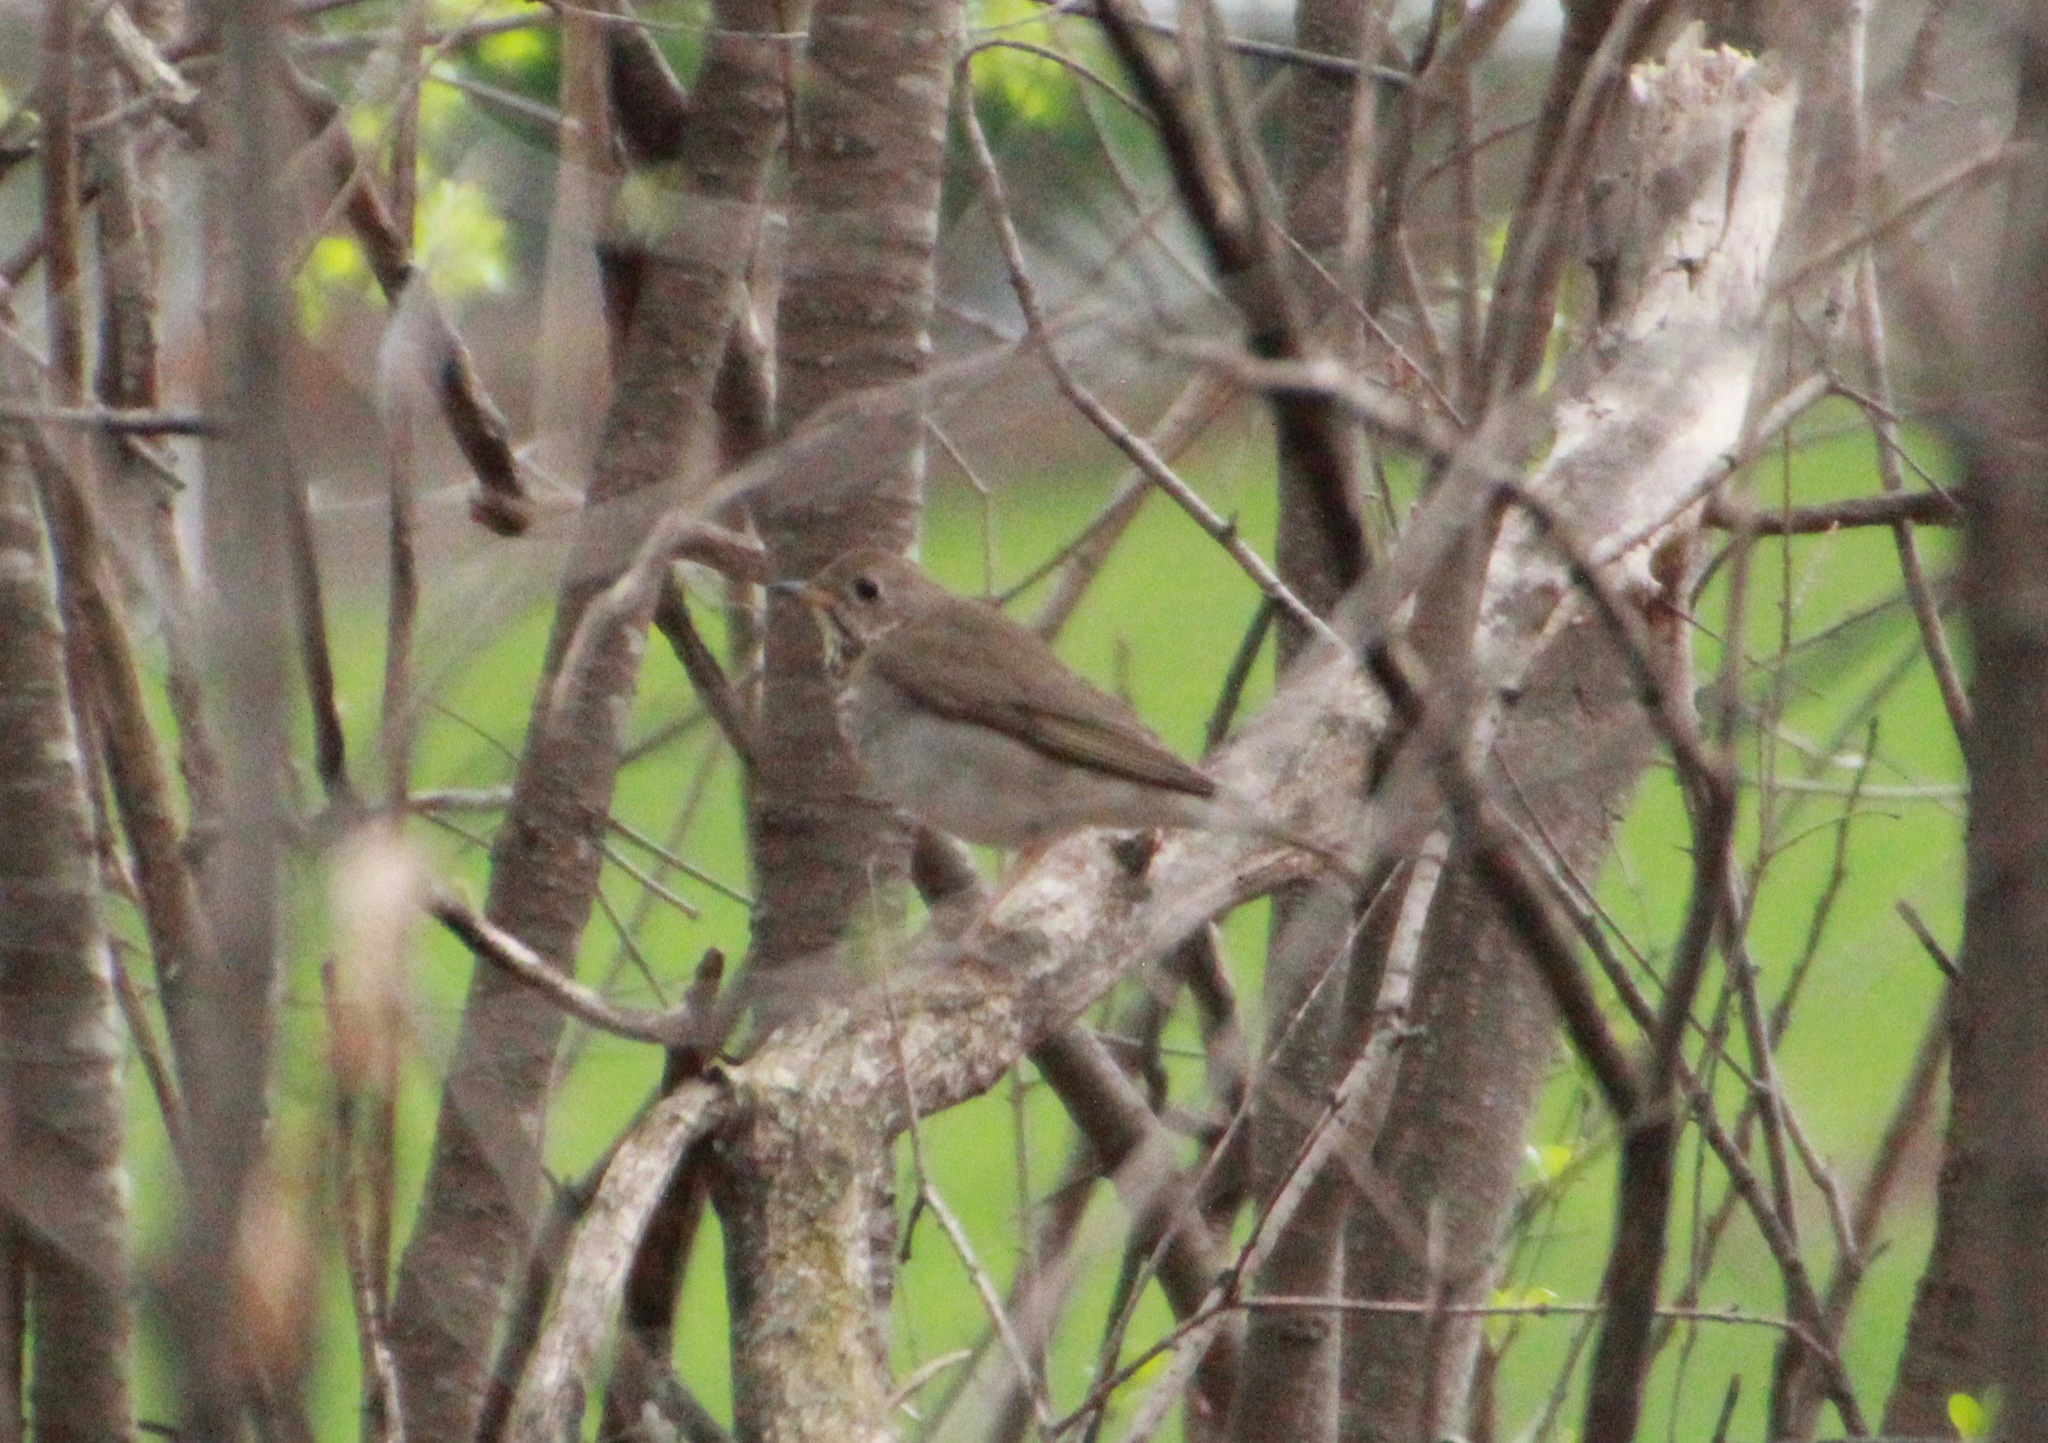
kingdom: Animalia
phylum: Chordata
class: Aves
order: Passeriformes
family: Turdidae
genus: Catharus
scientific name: Catharus minimus
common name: Grey-cheeked thrush
